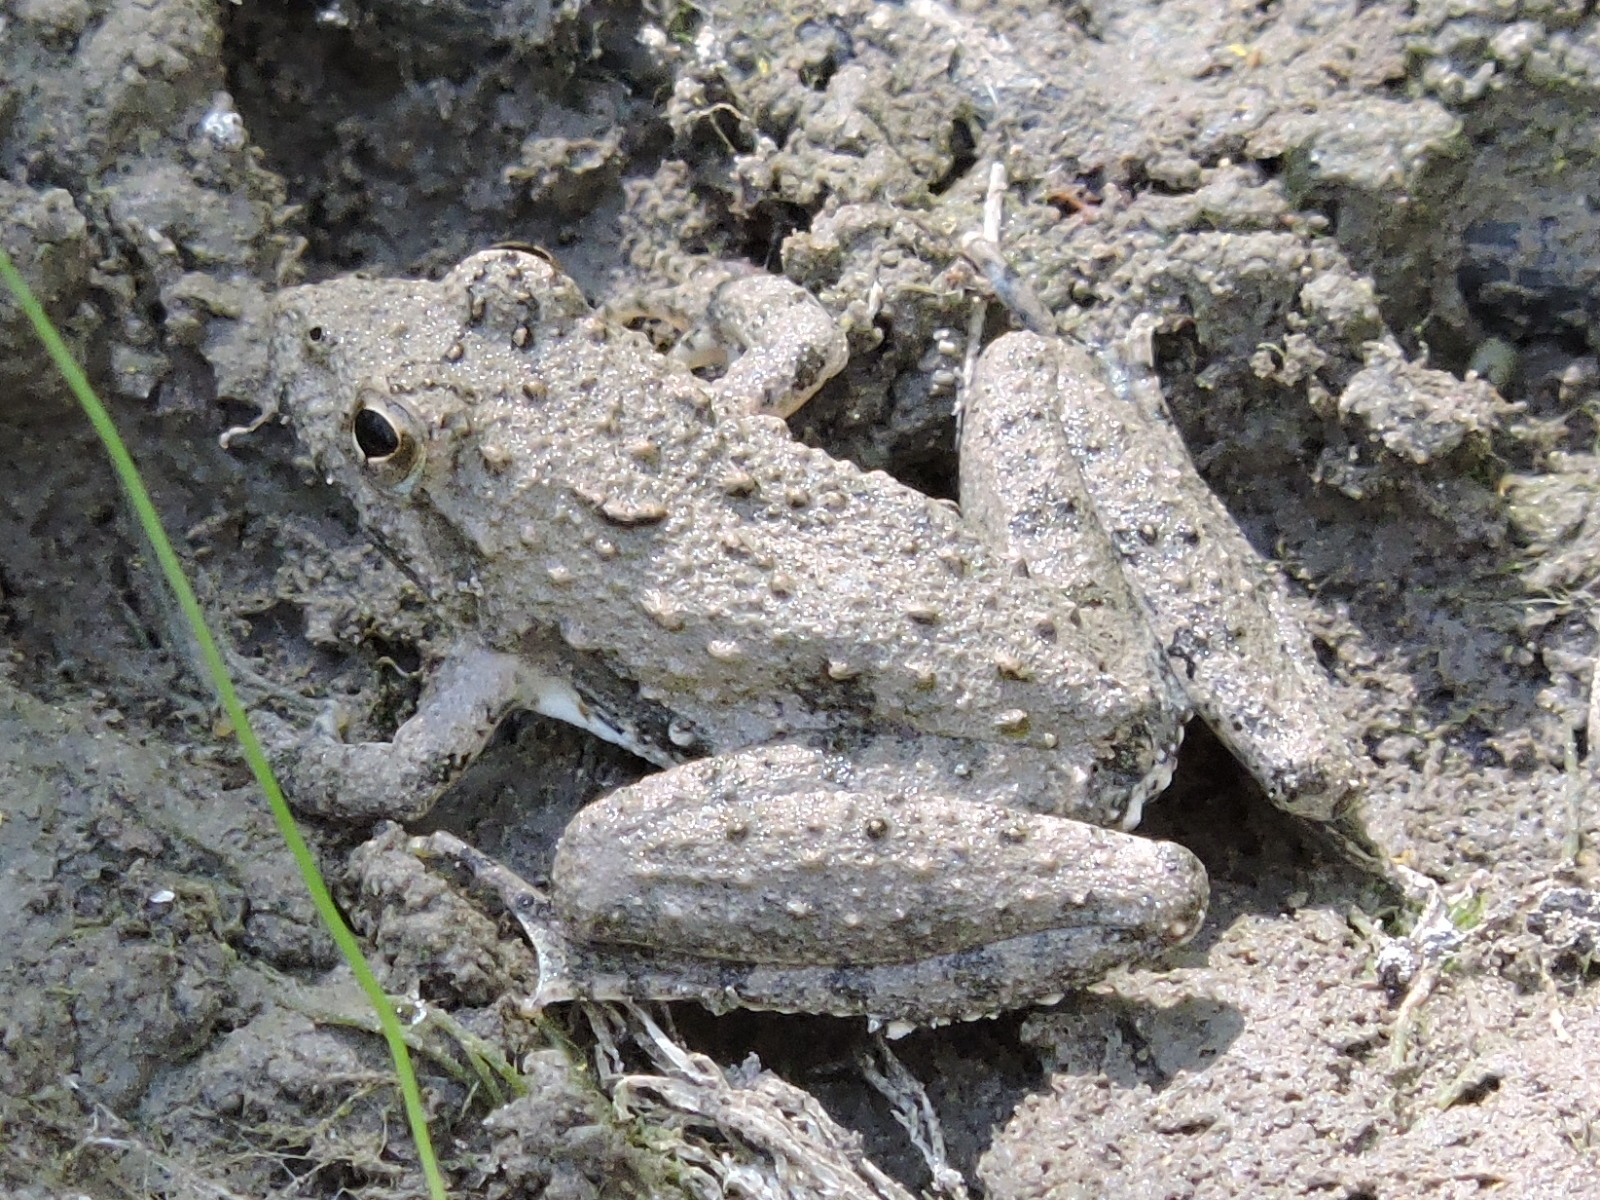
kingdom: Animalia
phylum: Chordata
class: Amphibia
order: Anura
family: Hylidae
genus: Acris
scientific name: Acris blanchardi
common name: Blanchard's cricket frog
